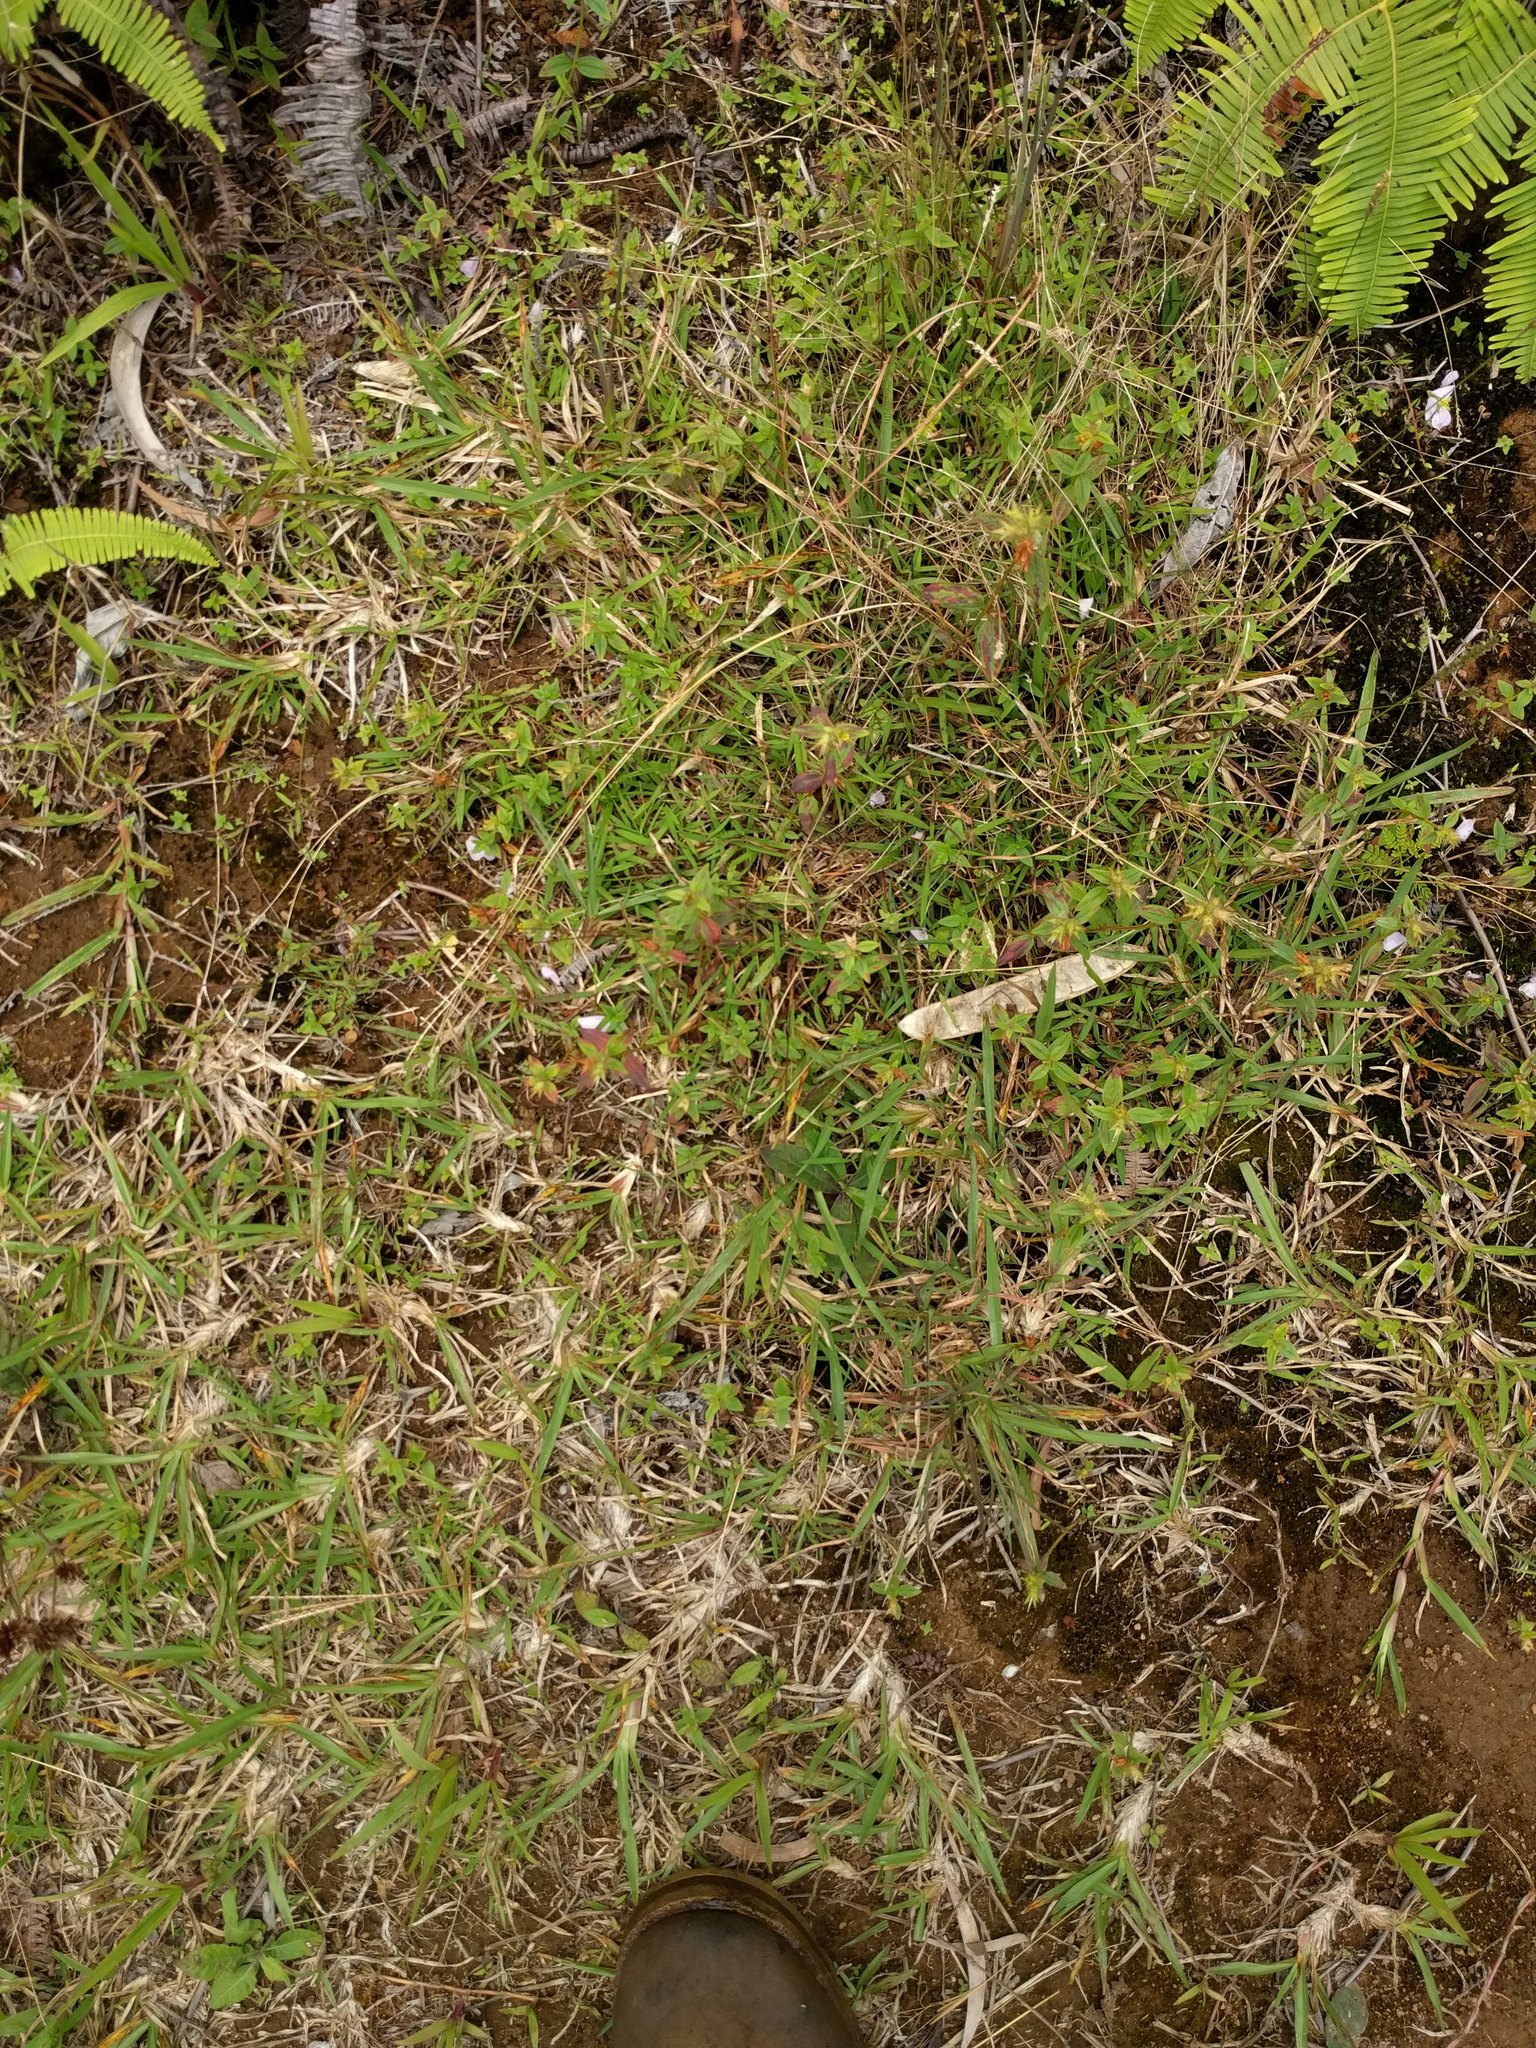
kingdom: Plantae
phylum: Tracheophyta
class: Magnoliopsida
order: Myrtales
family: Melastomataceae
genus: Pterolepis
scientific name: Pterolepis glomerata
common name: False meadowbeauty
